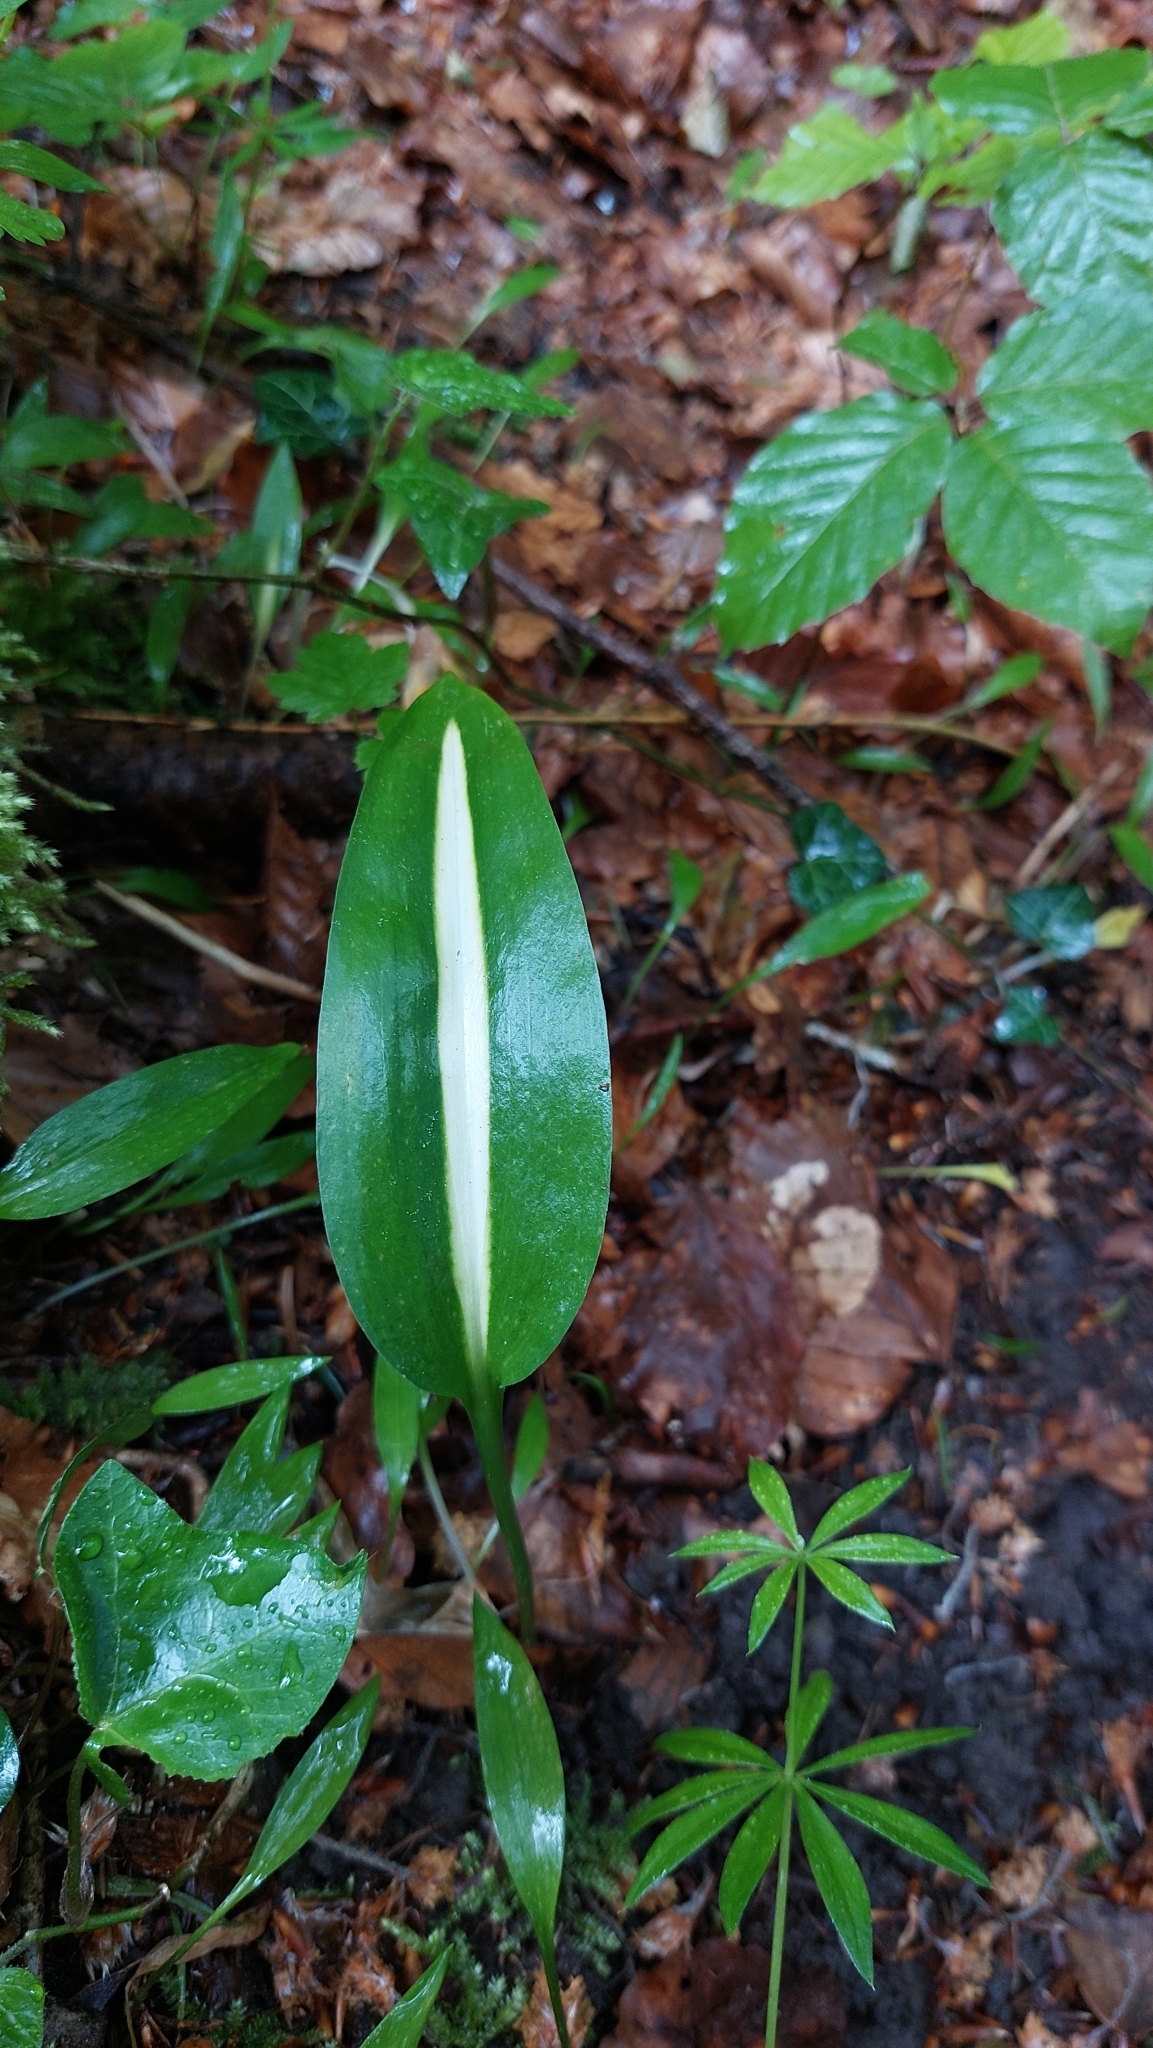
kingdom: Plantae
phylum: Tracheophyta
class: Liliopsida
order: Asparagales
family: Amaryllidaceae
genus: Allium
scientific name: Allium ursinum
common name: Ramsons
